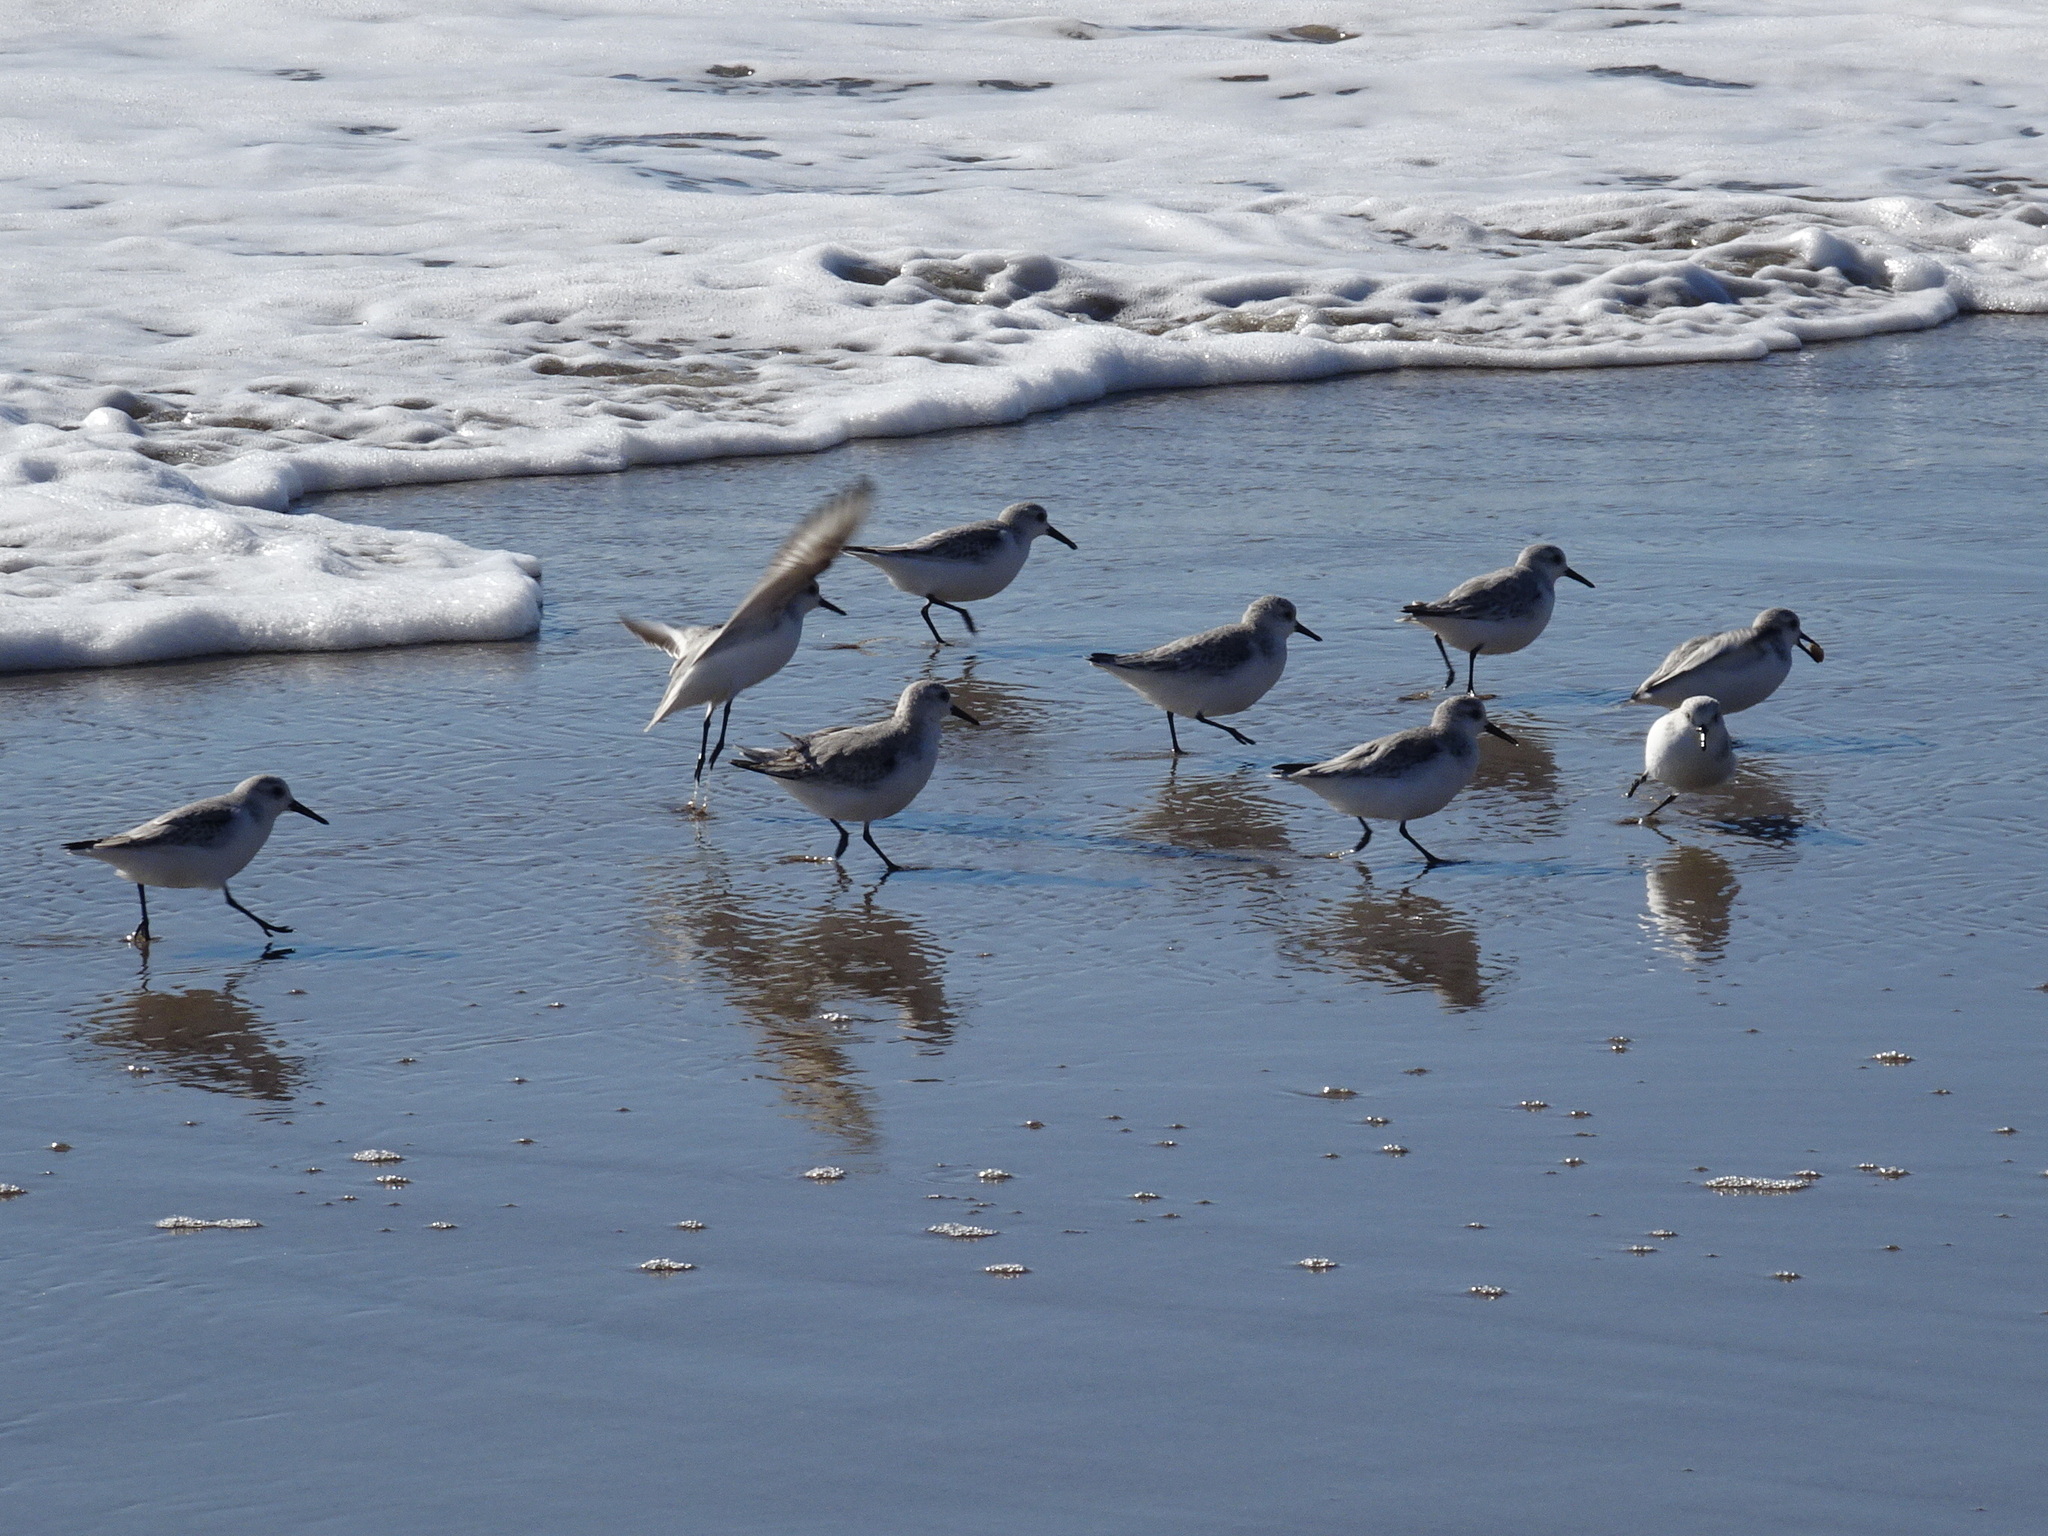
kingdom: Animalia
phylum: Chordata
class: Aves
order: Charadriiformes
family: Scolopacidae
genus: Calidris
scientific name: Calidris alba
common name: Sanderling
